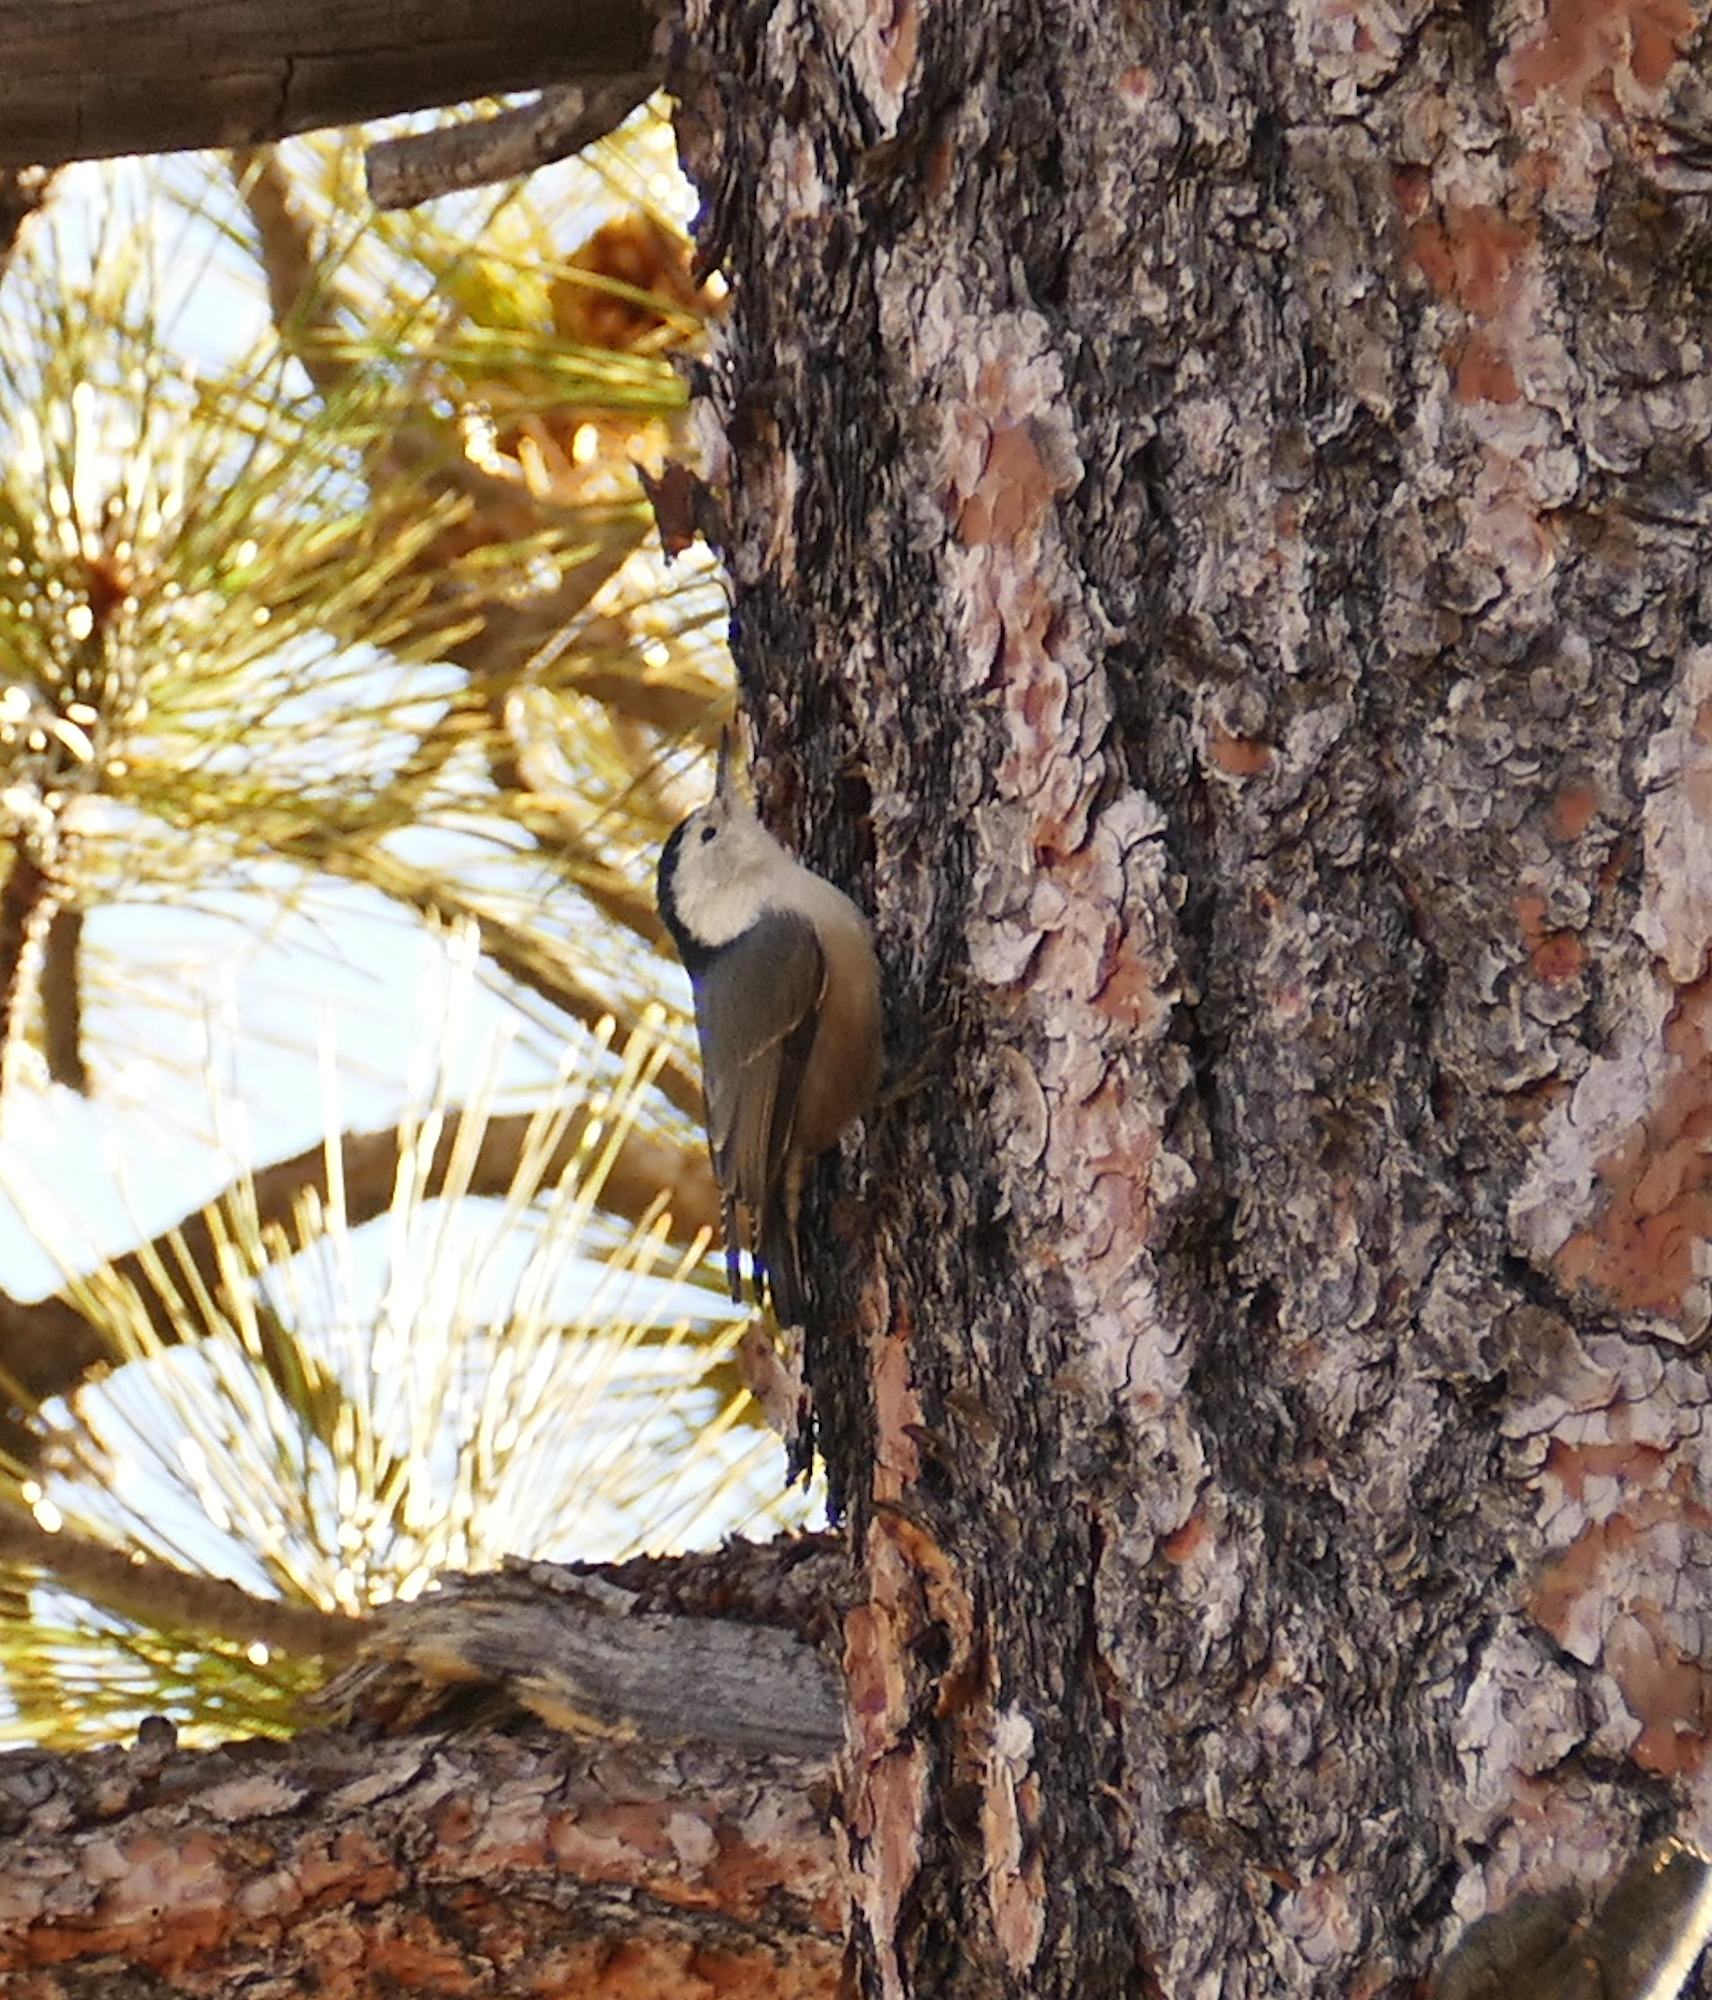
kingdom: Animalia
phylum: Chordata
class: Aves
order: Passeriformes
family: Sittidae
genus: Sitta
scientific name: Sitta carolinensis
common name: White-breasted nuthatch
